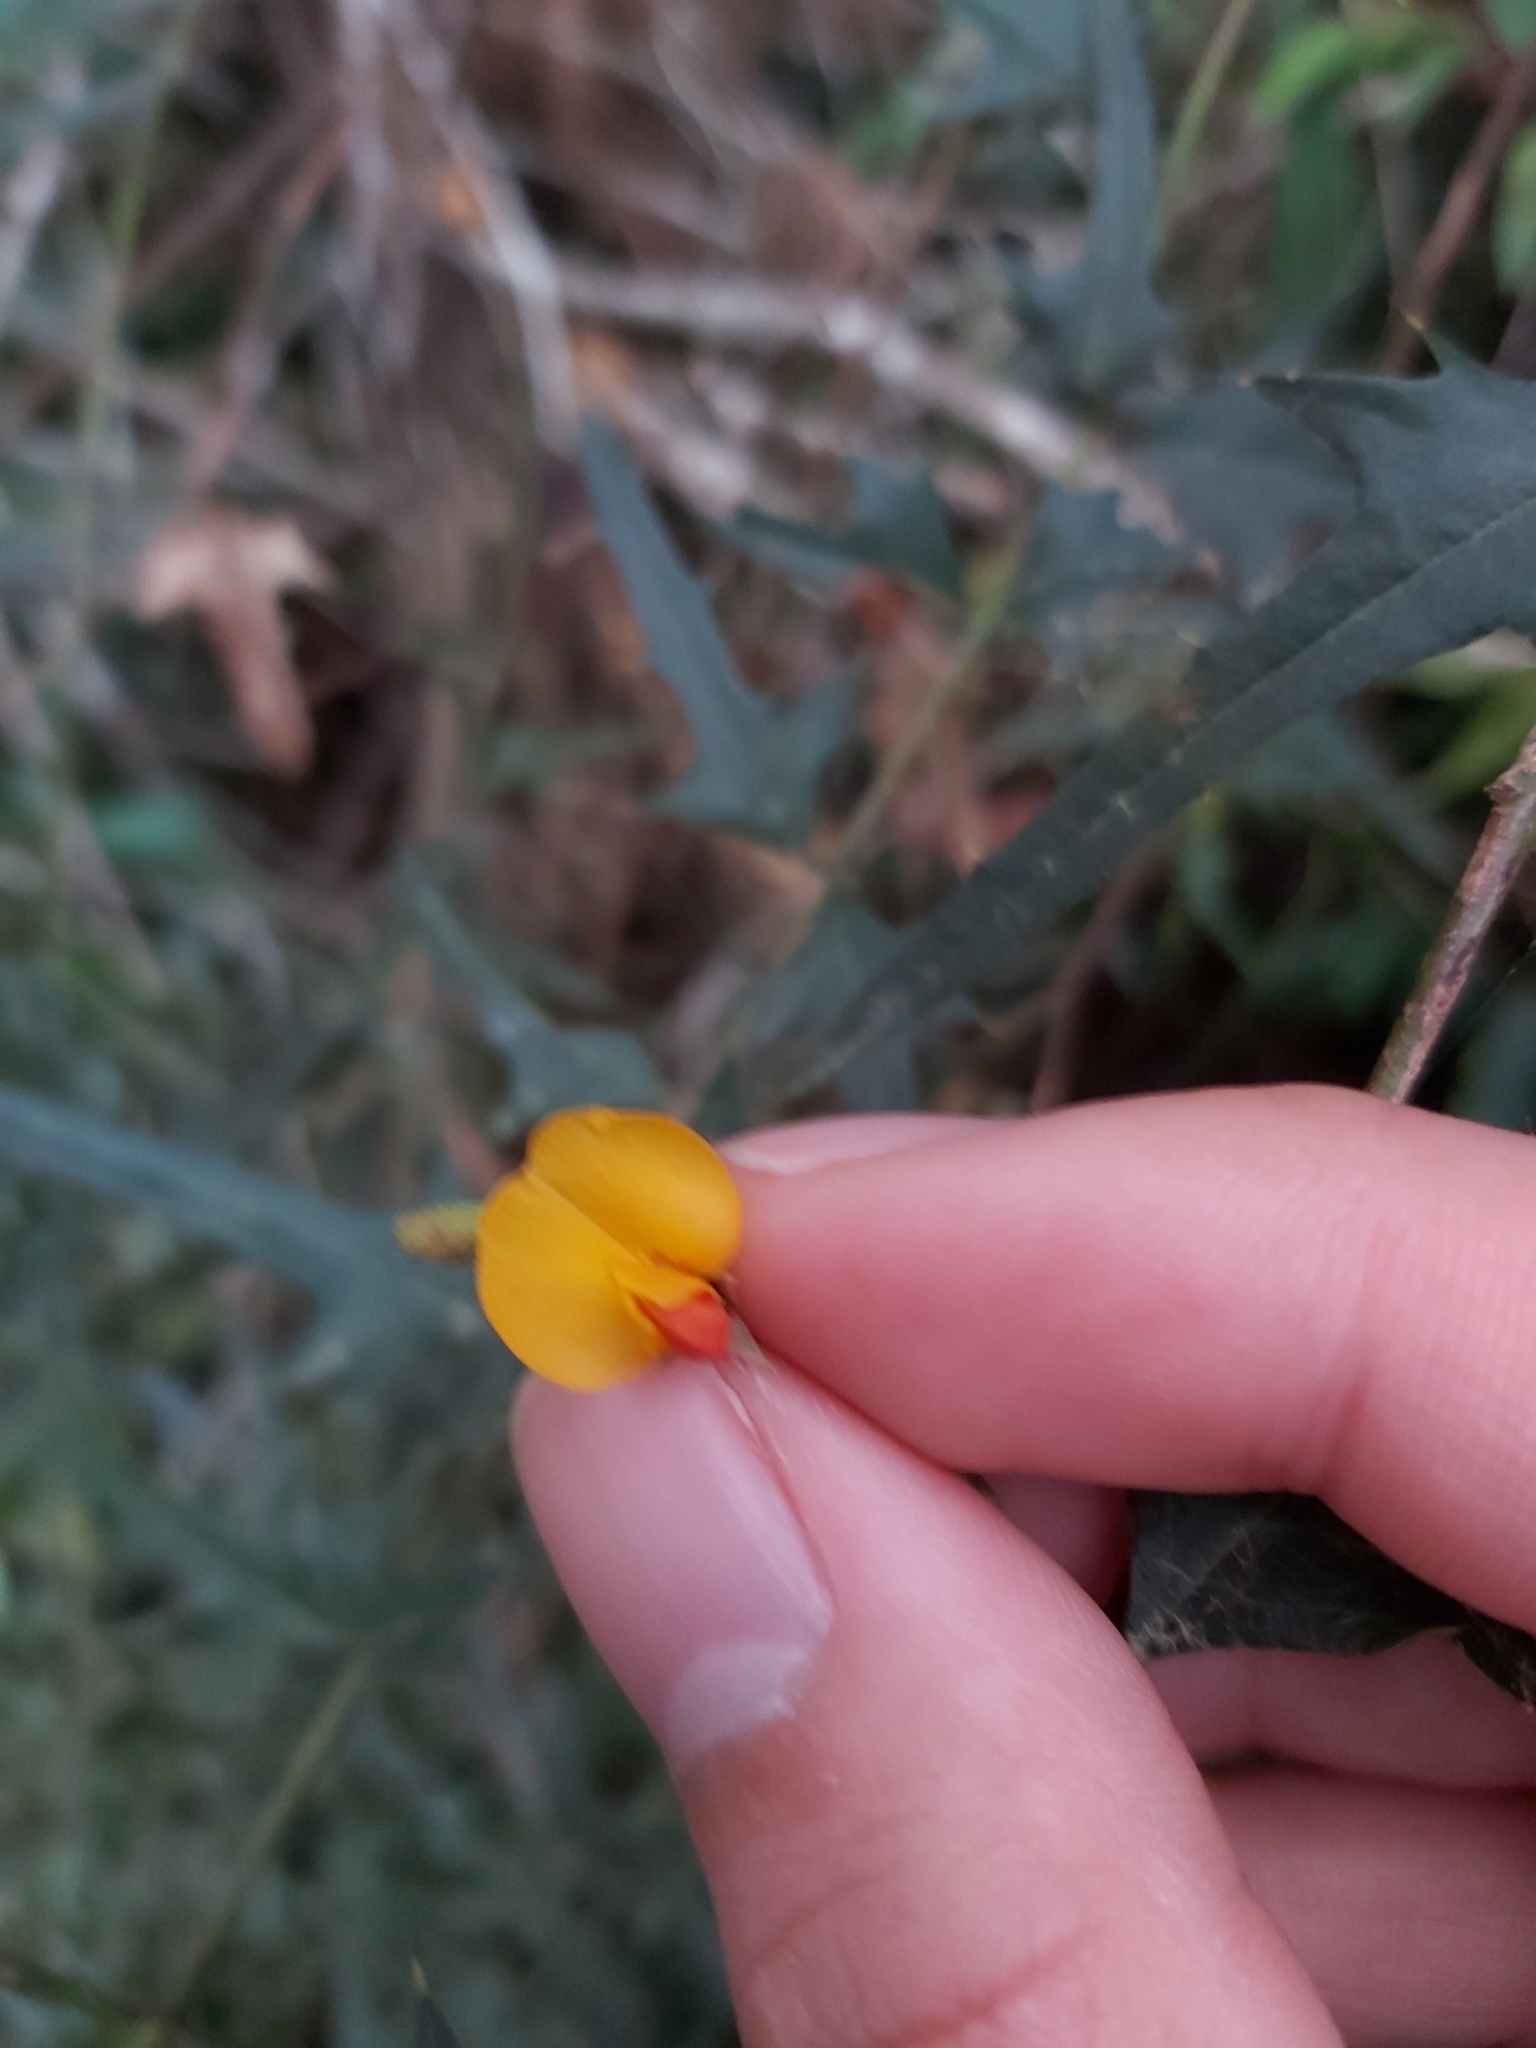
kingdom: Plantae
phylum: Tracheophyta
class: Magnoliopsida
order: Fabales
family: Fabaceae
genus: Podolobium
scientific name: Podolobium ilicifolium
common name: Native holly
